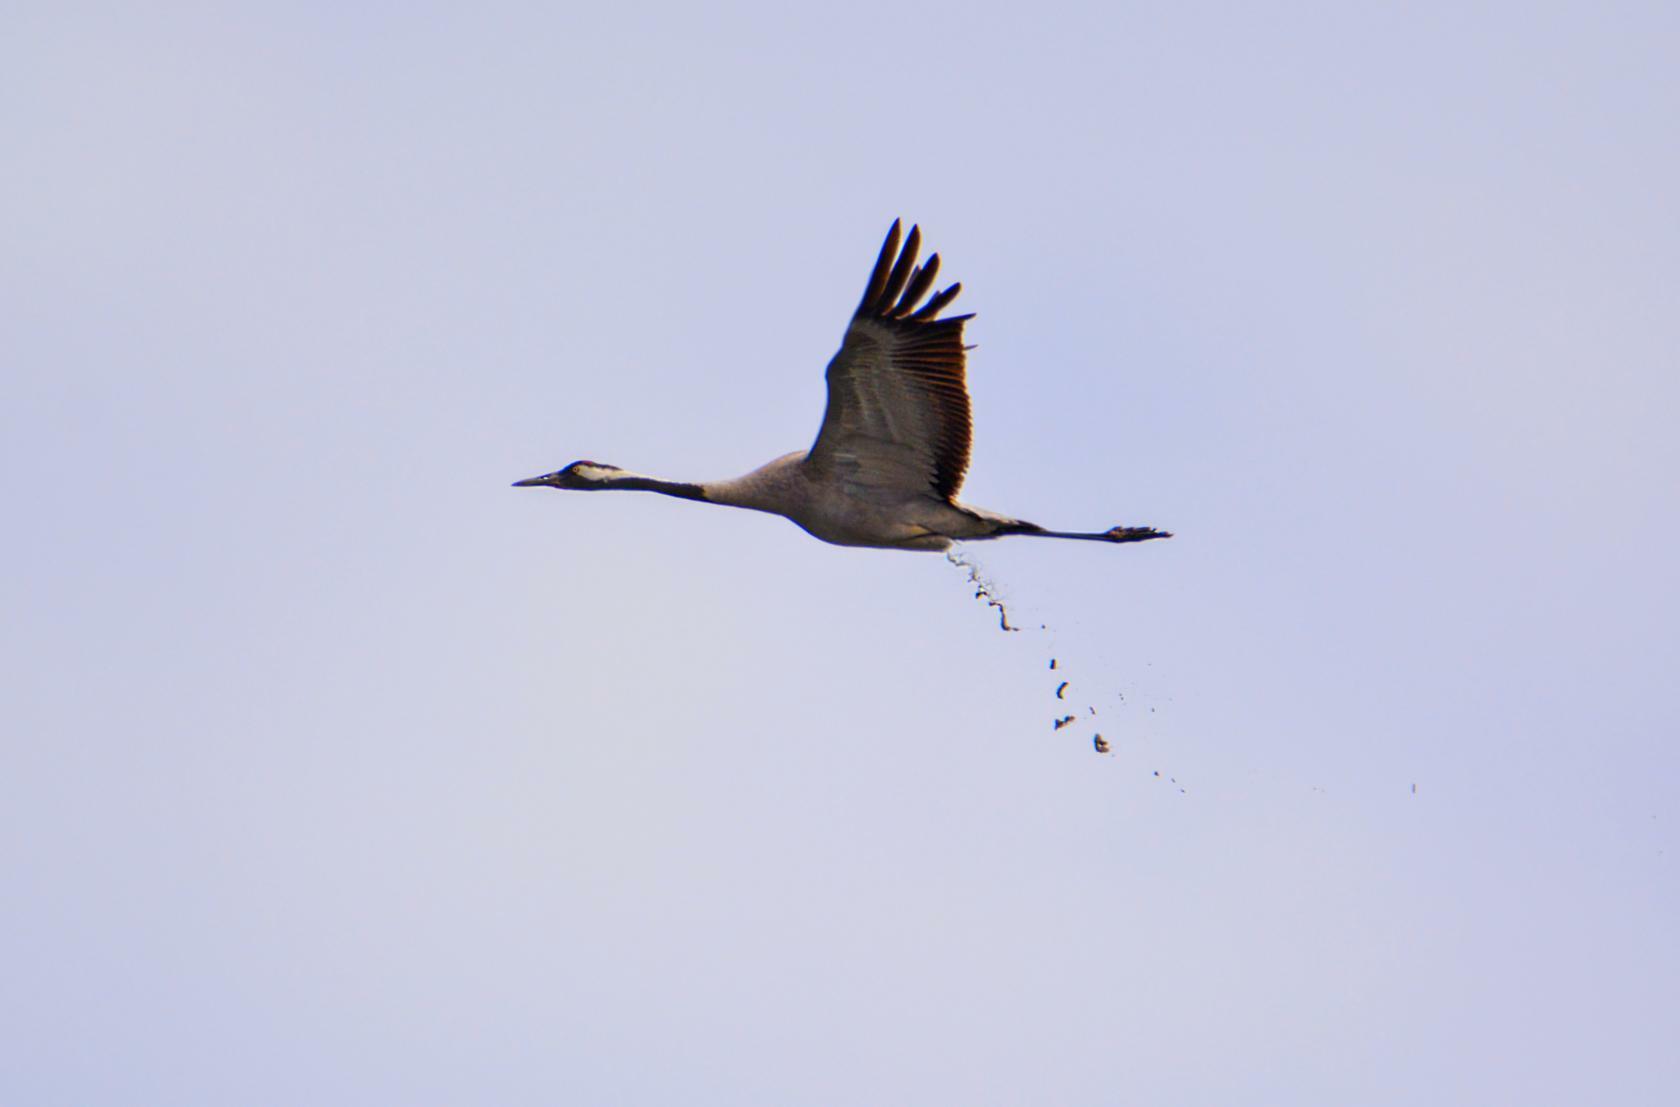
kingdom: Animalia
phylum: Chordata
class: Aves
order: Gruiformes
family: Gruidae
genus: Grus
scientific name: Grus grus
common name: Common crane
